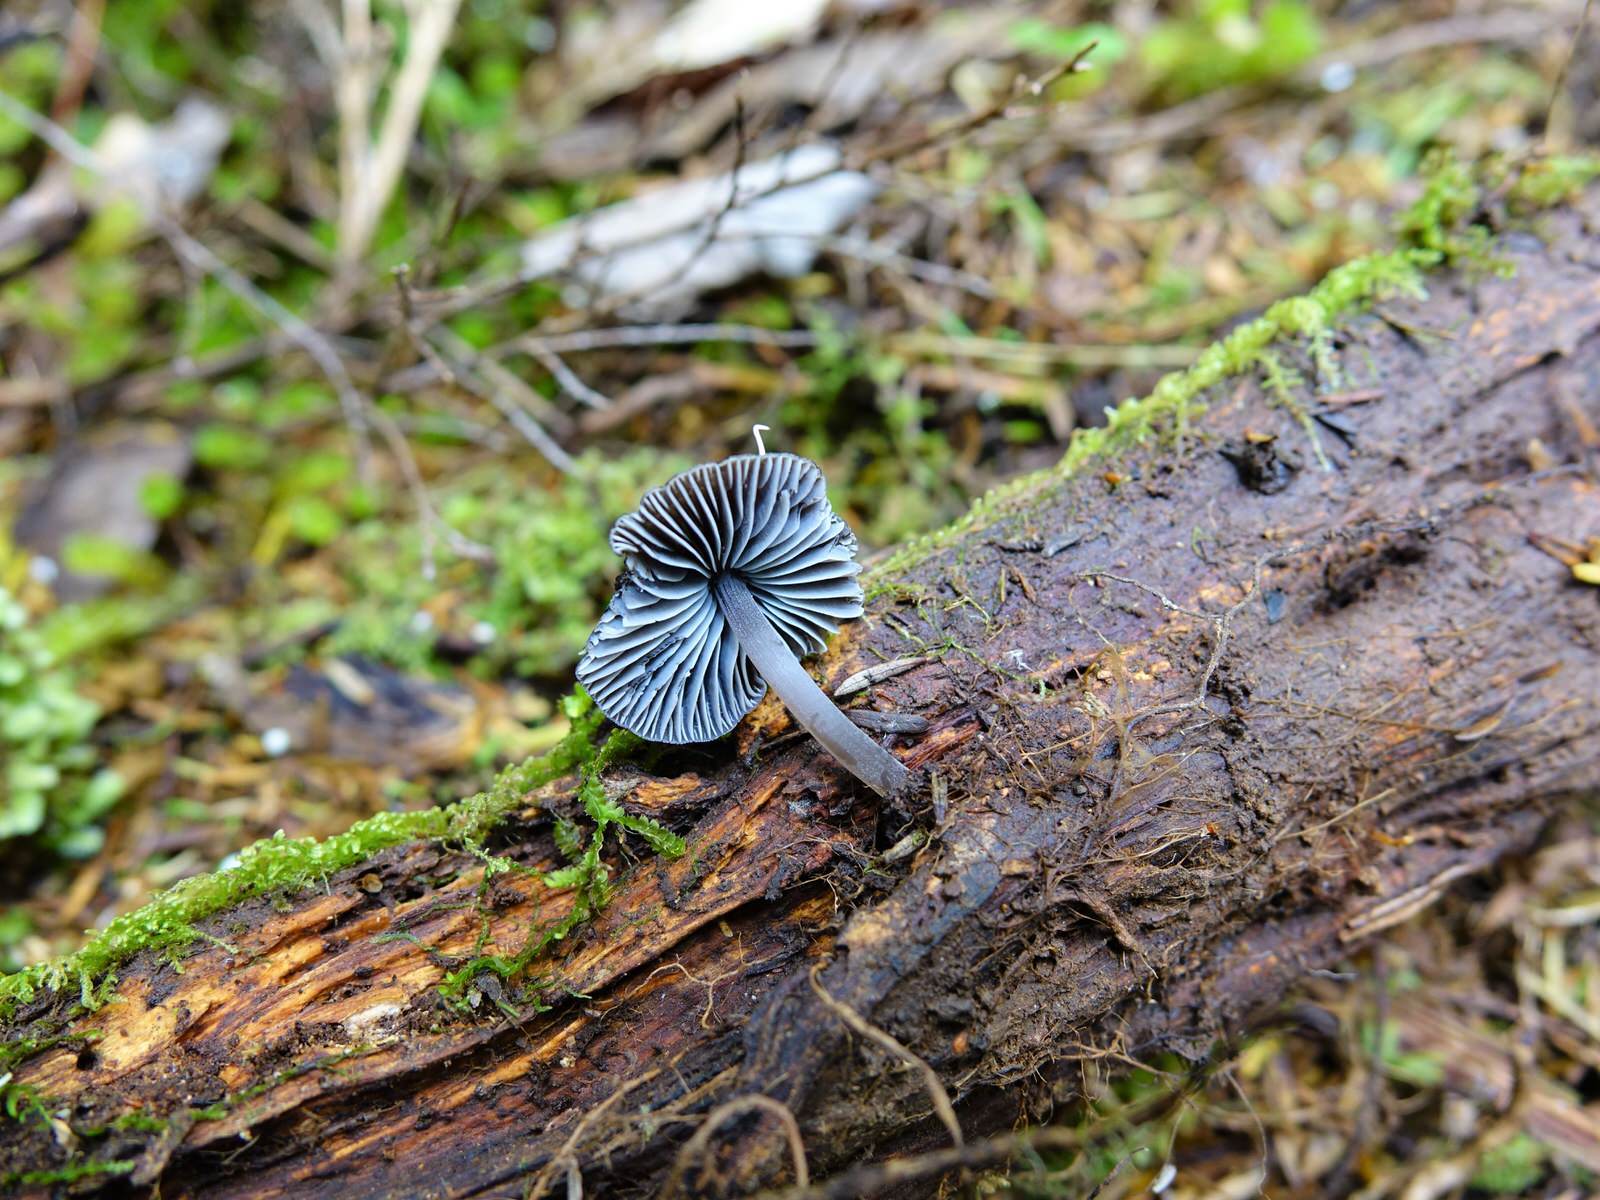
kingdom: Fungi
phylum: Basidiomycota
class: Agaricomycetes
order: Agaricales
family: Mycenaceae
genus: Mycena
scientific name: Mycena
